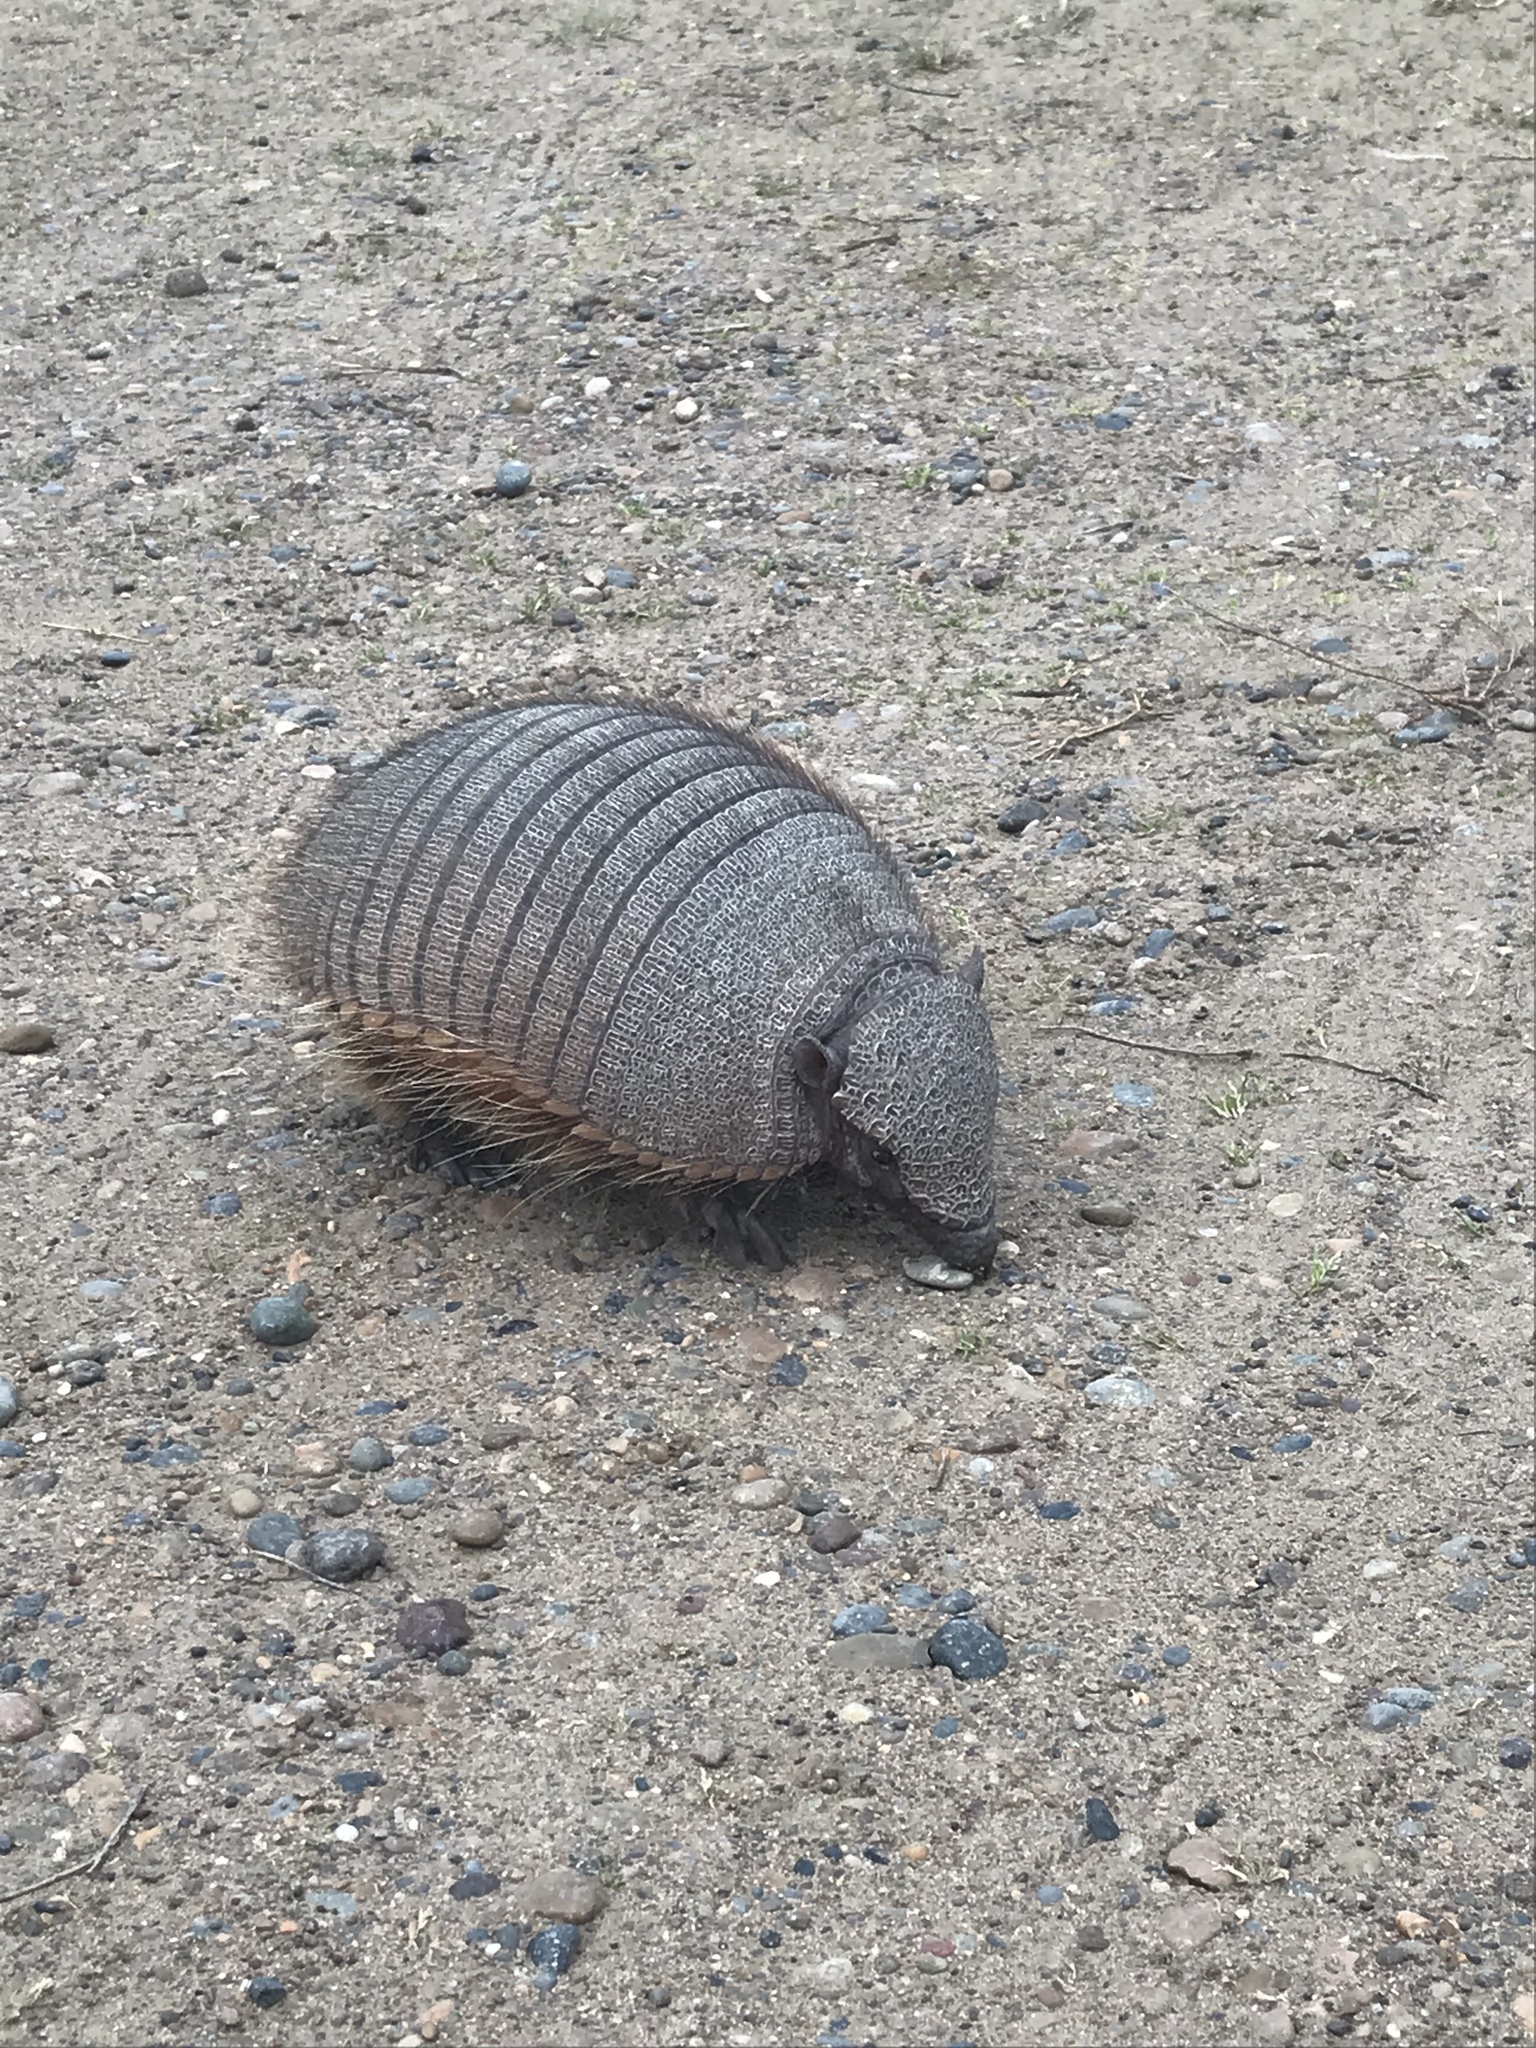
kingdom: Animalia
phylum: Chordata
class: Mammalia
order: Cingulata
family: Dasypodidae
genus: Chaetophractus
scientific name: Chaetophractus villosus
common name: Big hairy armadillo
